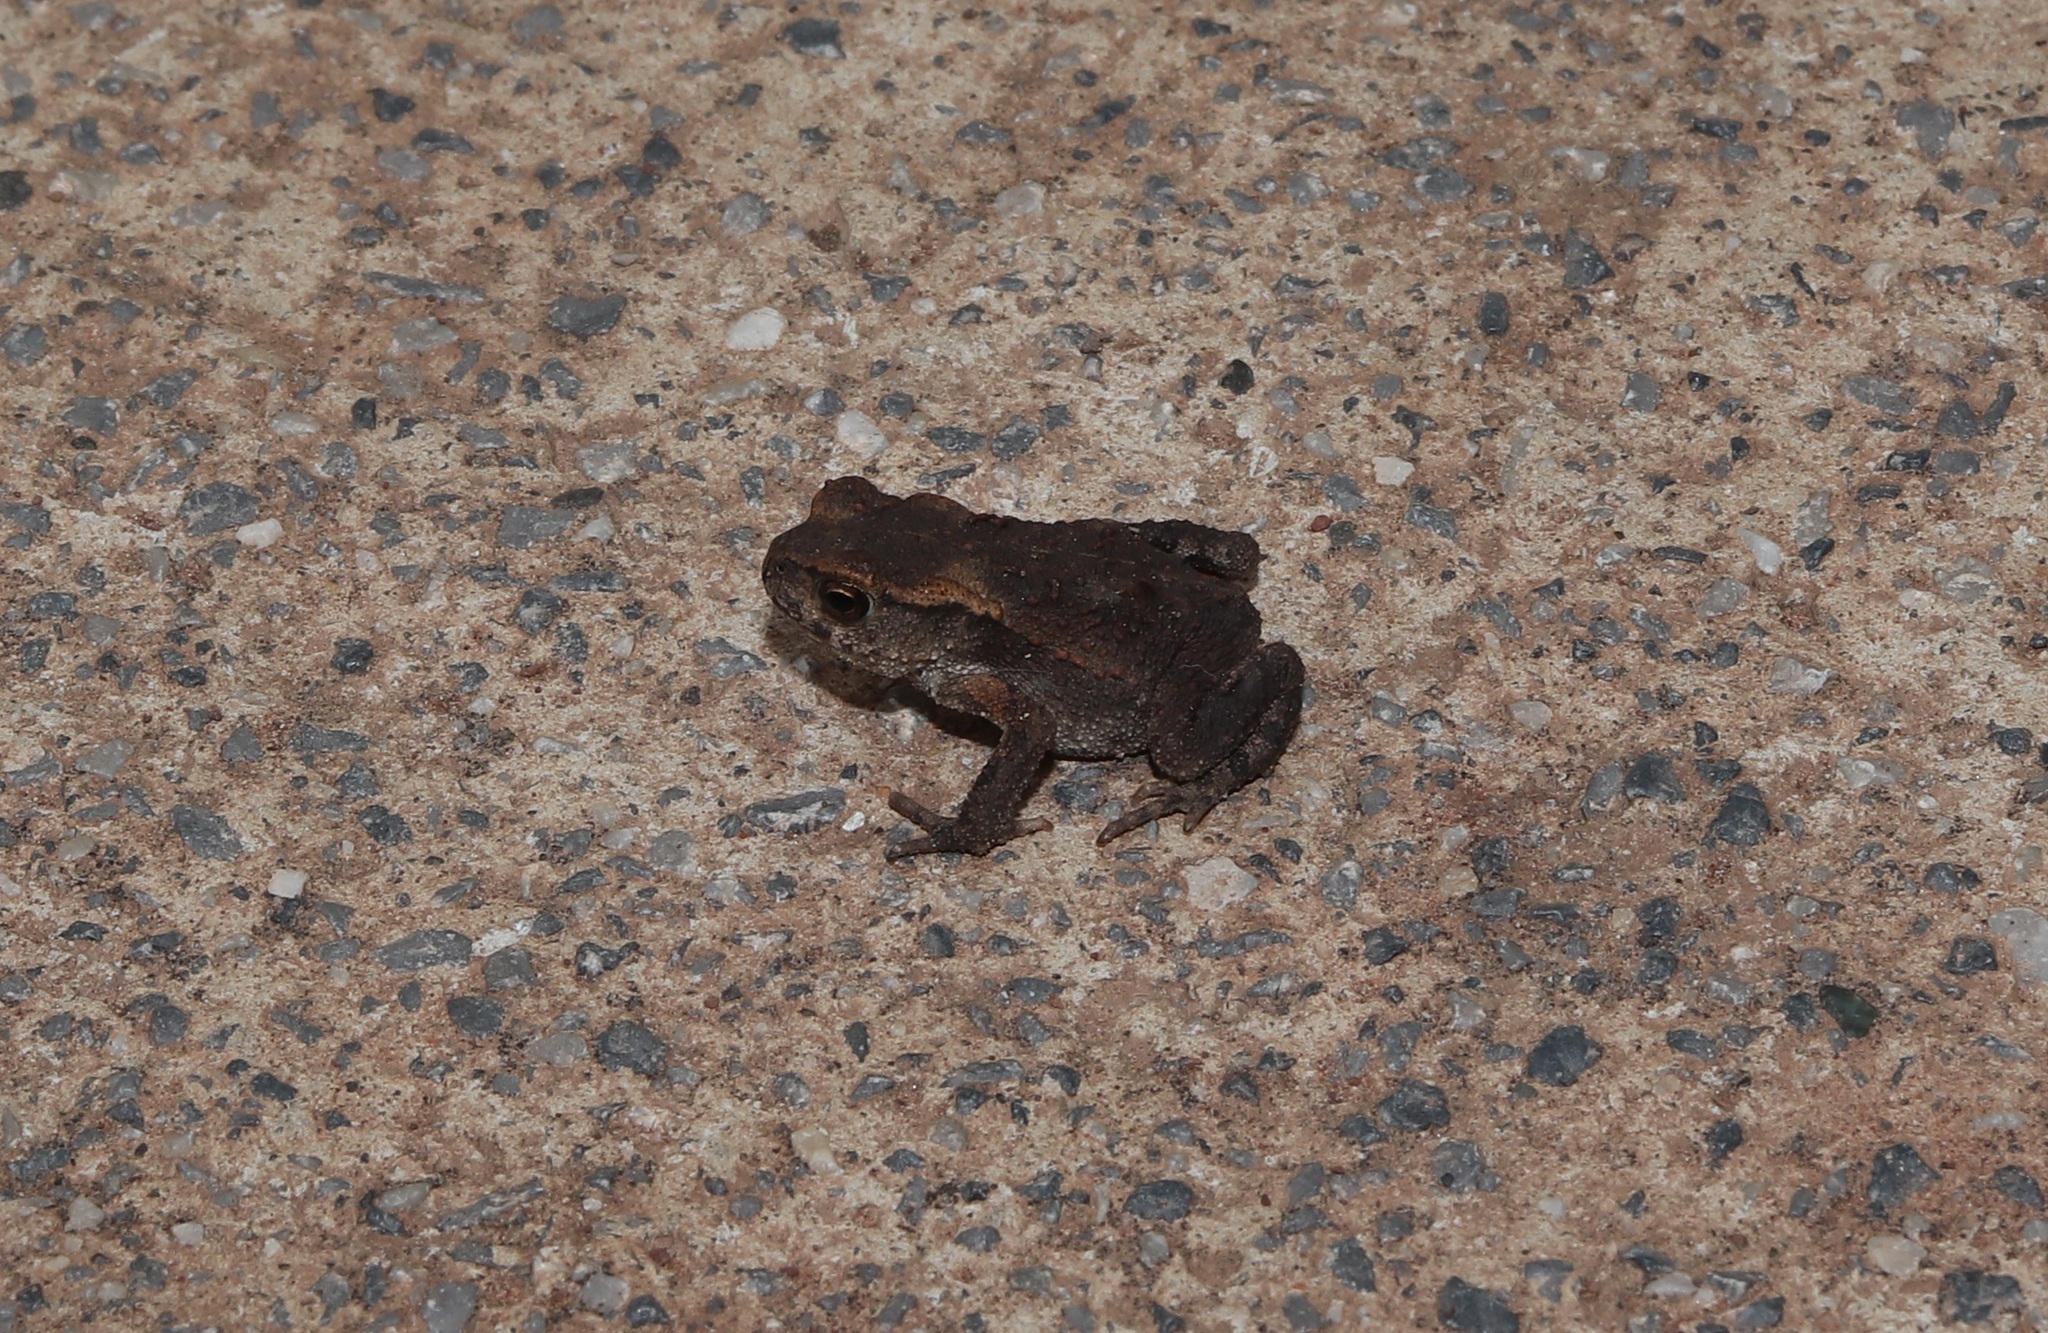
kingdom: Animalia
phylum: Chordata
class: Amphibia
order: Anura
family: Bufonidae
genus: Bufo
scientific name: Bufo gargarizans
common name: Asiatic toad
